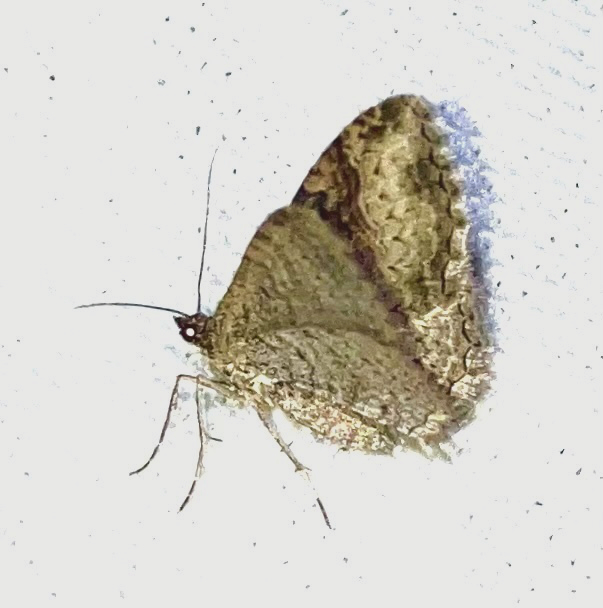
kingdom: Animalia
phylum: Arthropoda
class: Insecta
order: Lepidoptera
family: Geometridae
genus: Costaconvexa
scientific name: Costaconvexa centrostrigaria
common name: Bent-line carpet
